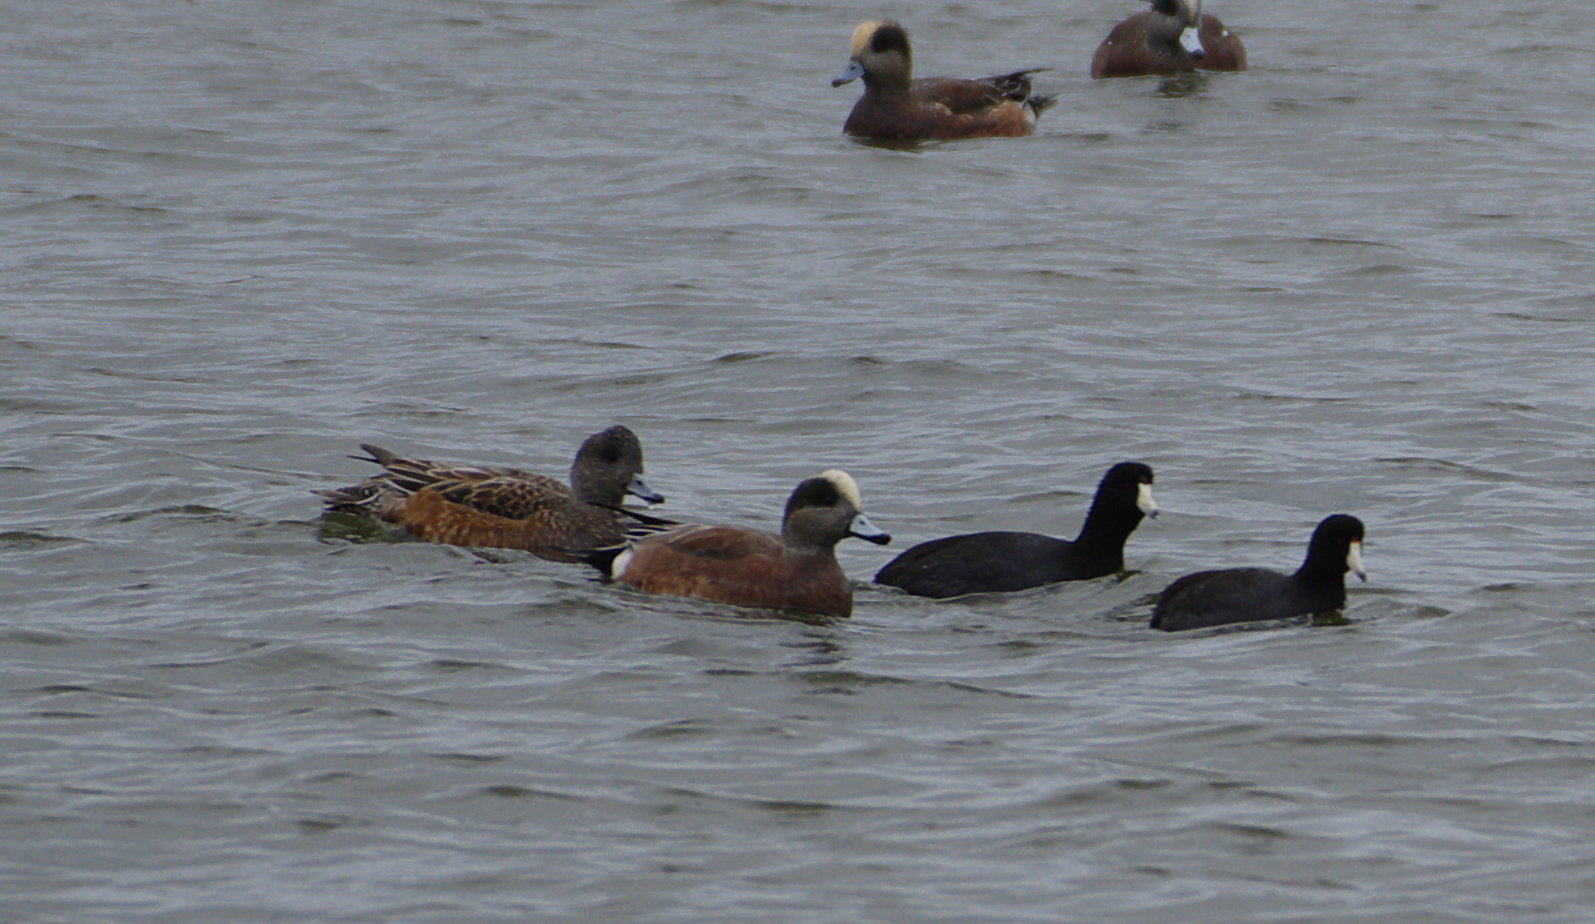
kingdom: Animalia
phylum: Chordata
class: Aves
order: Anseriformes
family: Anatidae
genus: Mareca
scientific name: Mareca americana
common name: American wigeon
